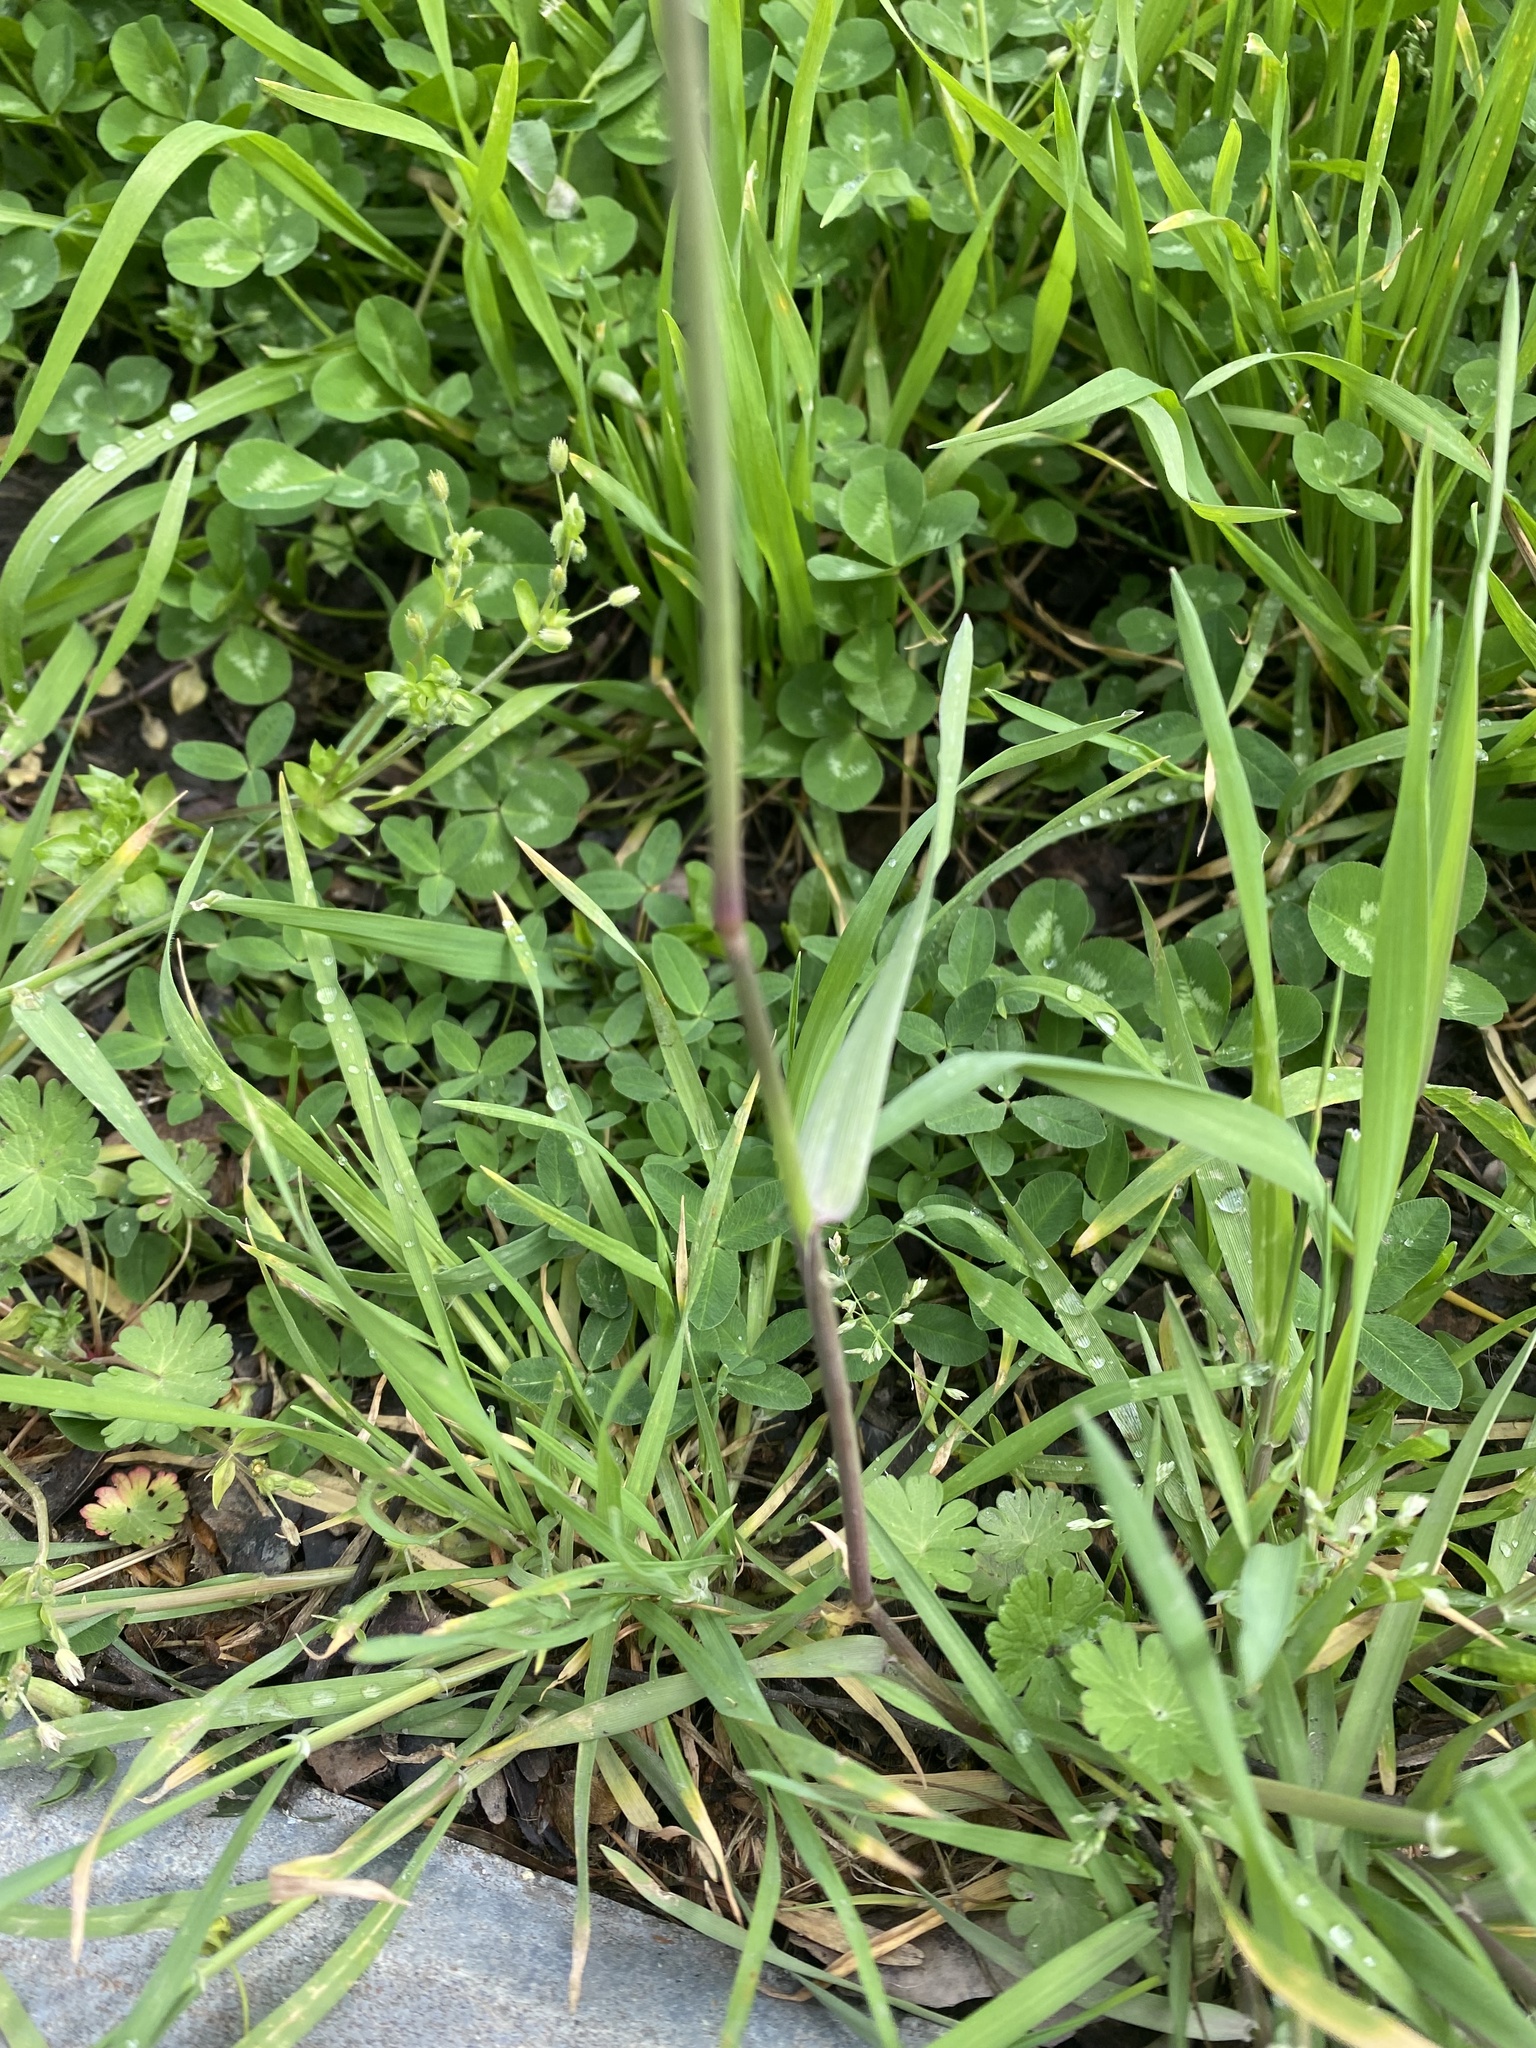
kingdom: Plantae
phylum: Tracheophyta
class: Liliopsida
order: Poales
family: Poaceae
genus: Alopecurus
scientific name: Alopecurus myosuroides
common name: Black-grass
